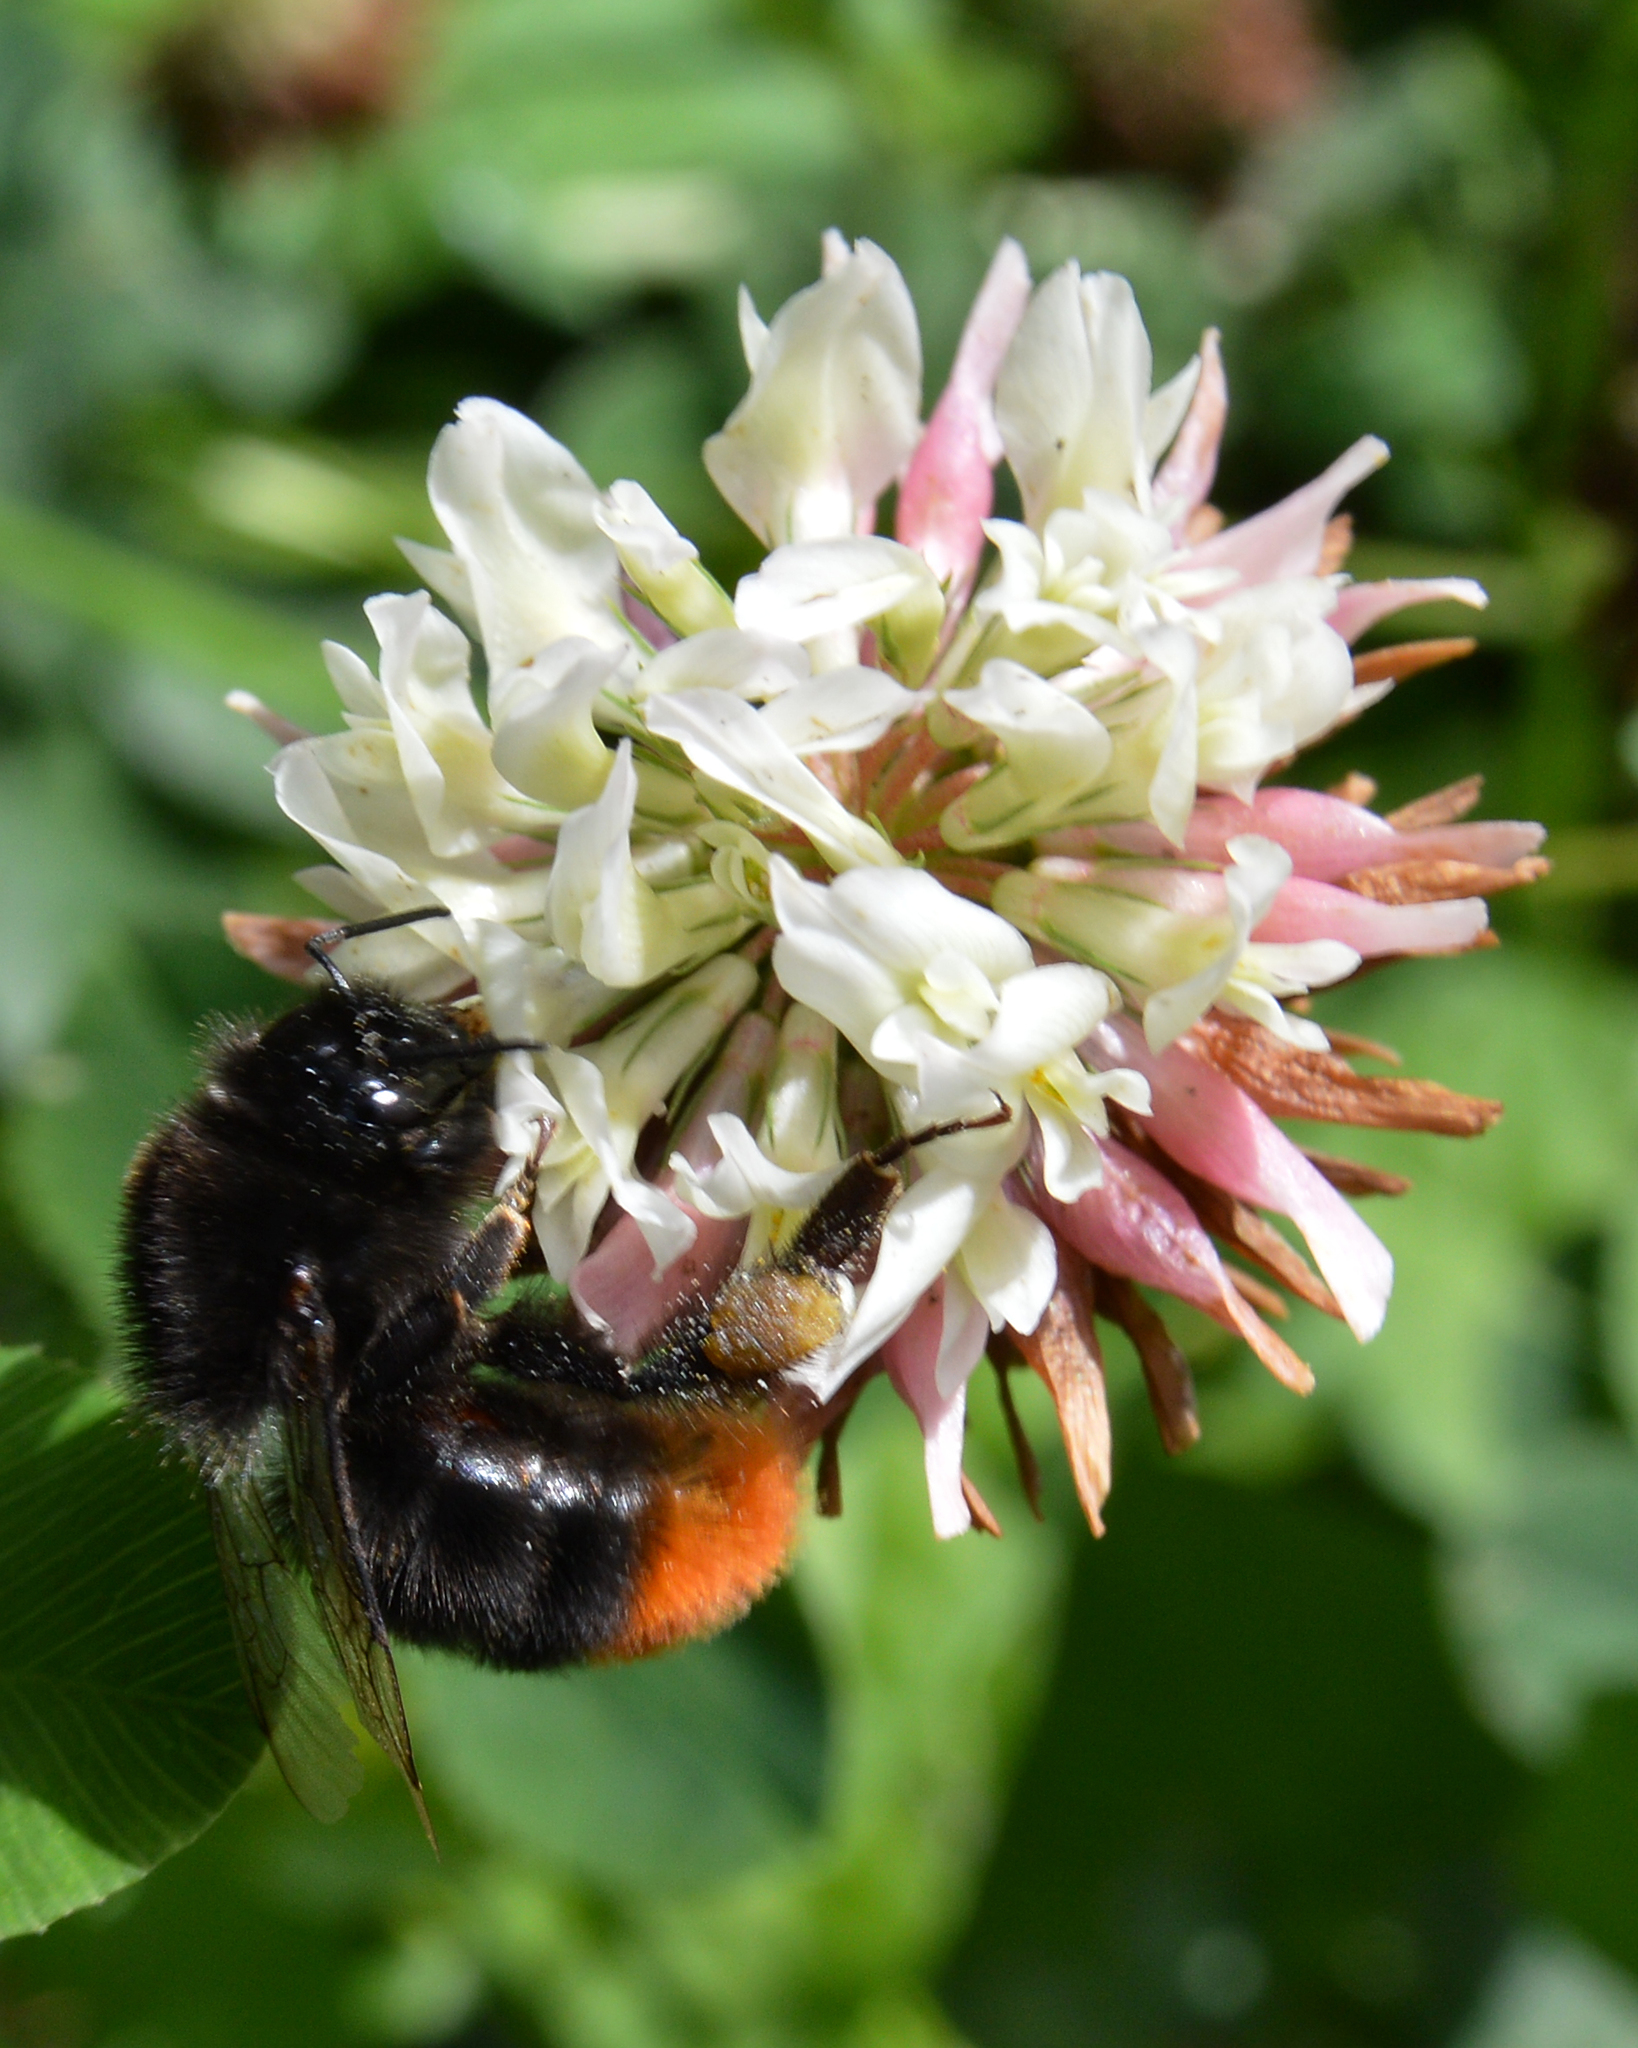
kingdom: Plantae
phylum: Tracheophyta
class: Magnoliopsida
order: Fabales
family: Fabaceae
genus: Trifolium
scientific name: Trifolium hybridum
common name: Alsike clover
